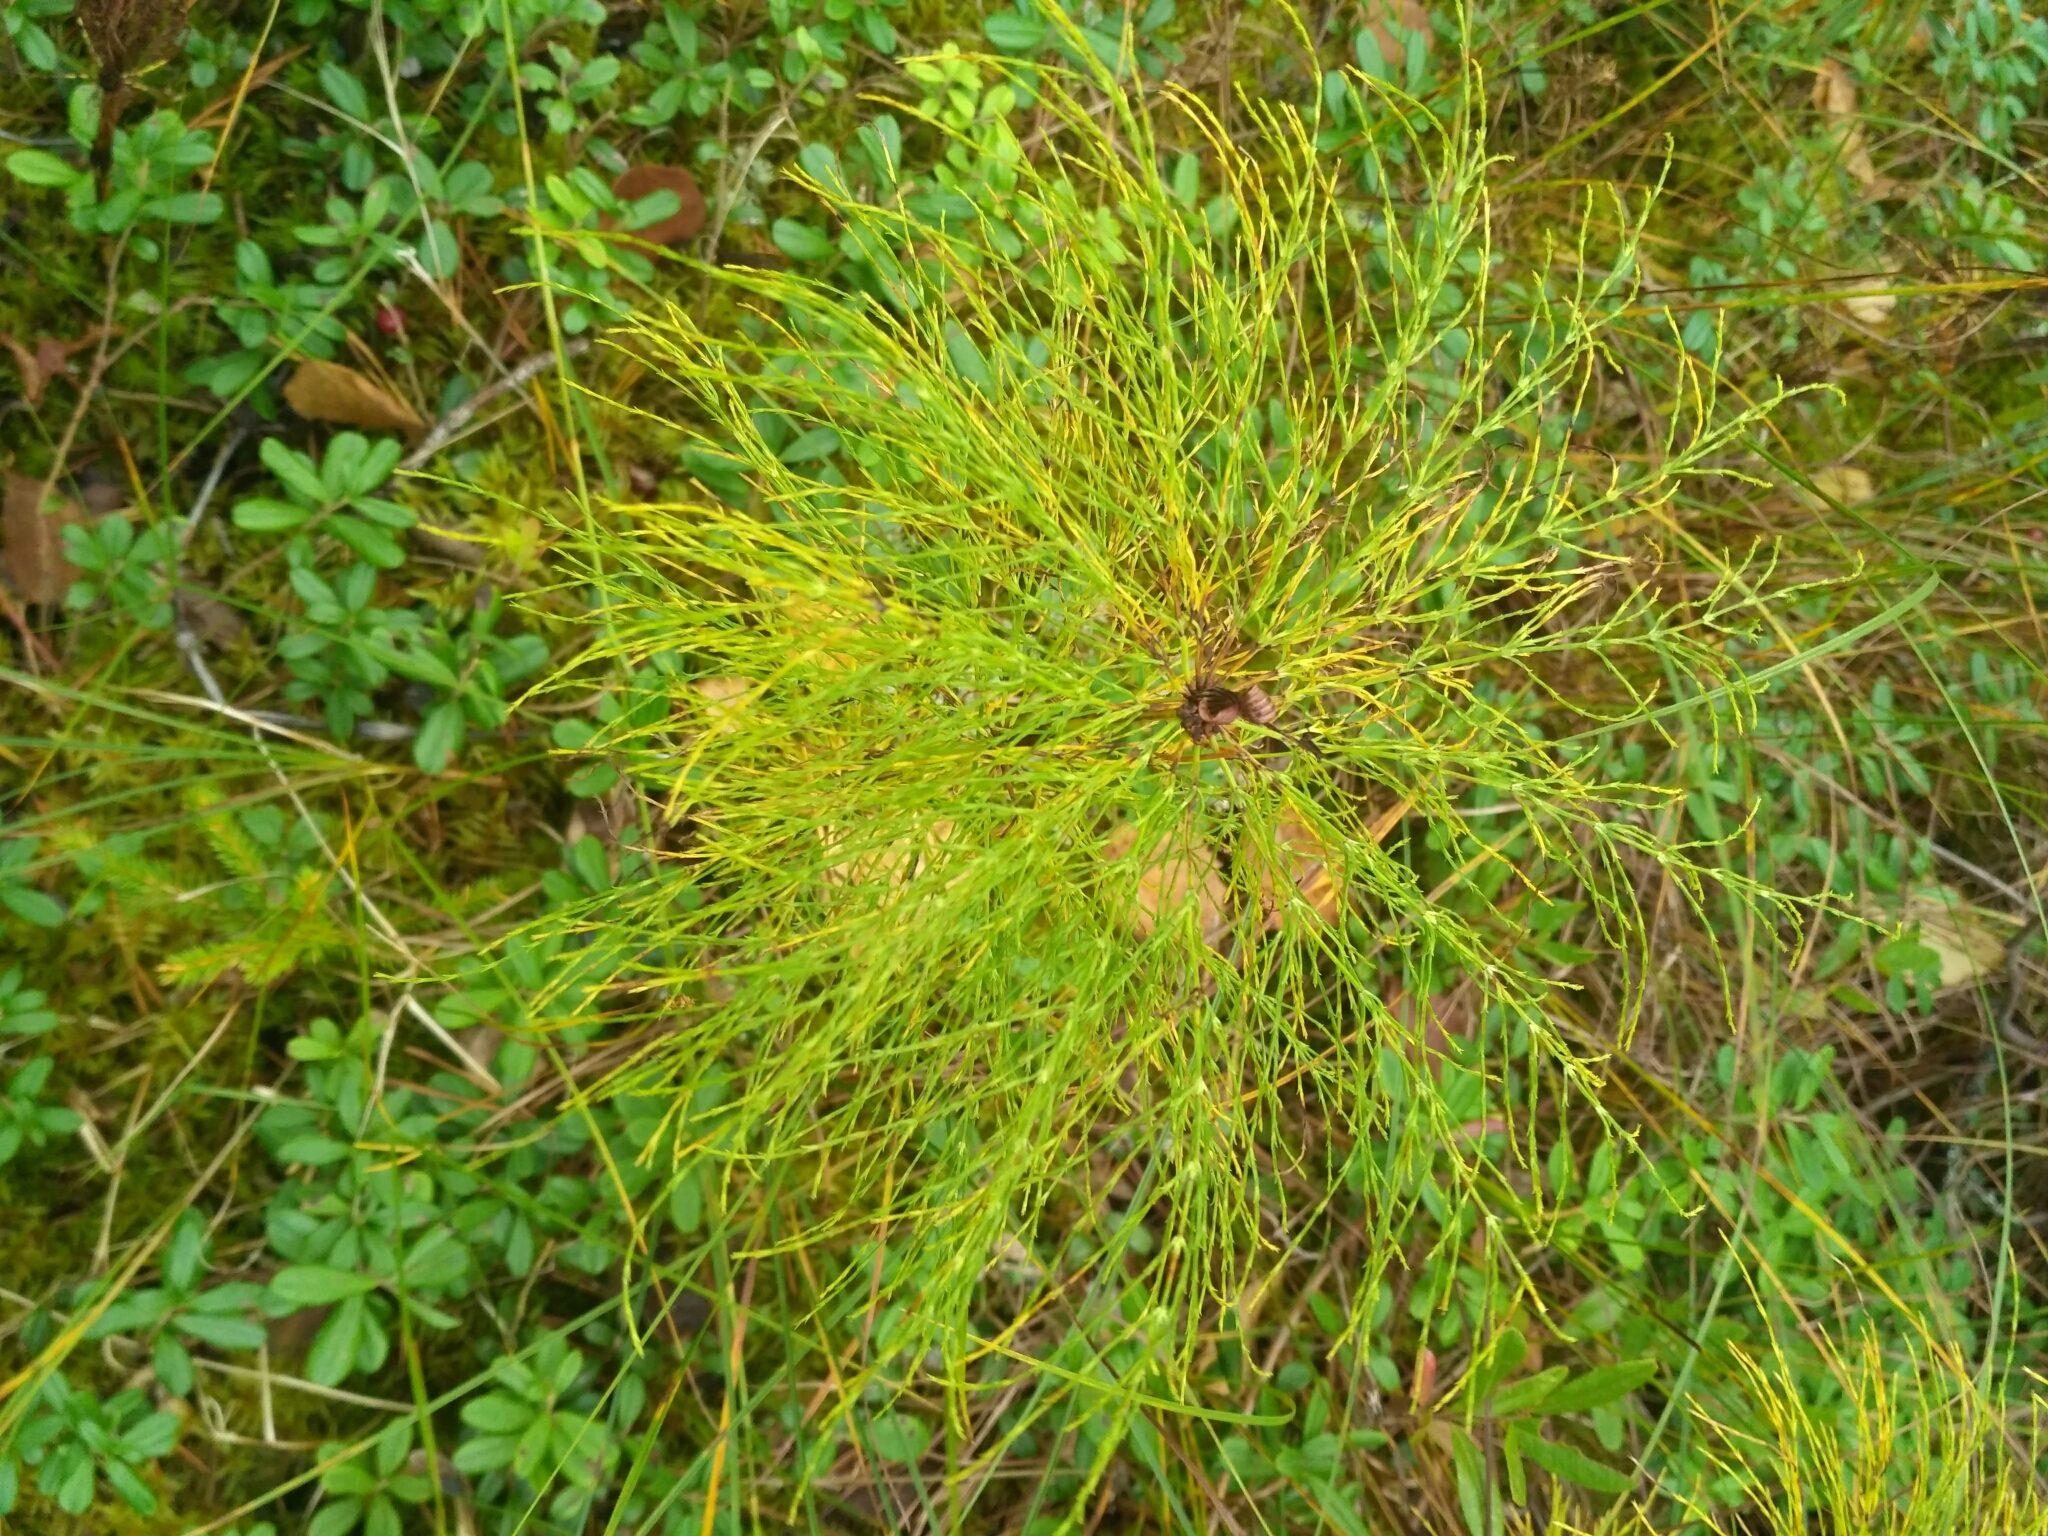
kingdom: Plantae
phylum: Tracheophyta
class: Polypodiopsida
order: Equisetales
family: Equisetaceae
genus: Equisetum
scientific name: Equisetum sylvaticum
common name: Wood horsetail
